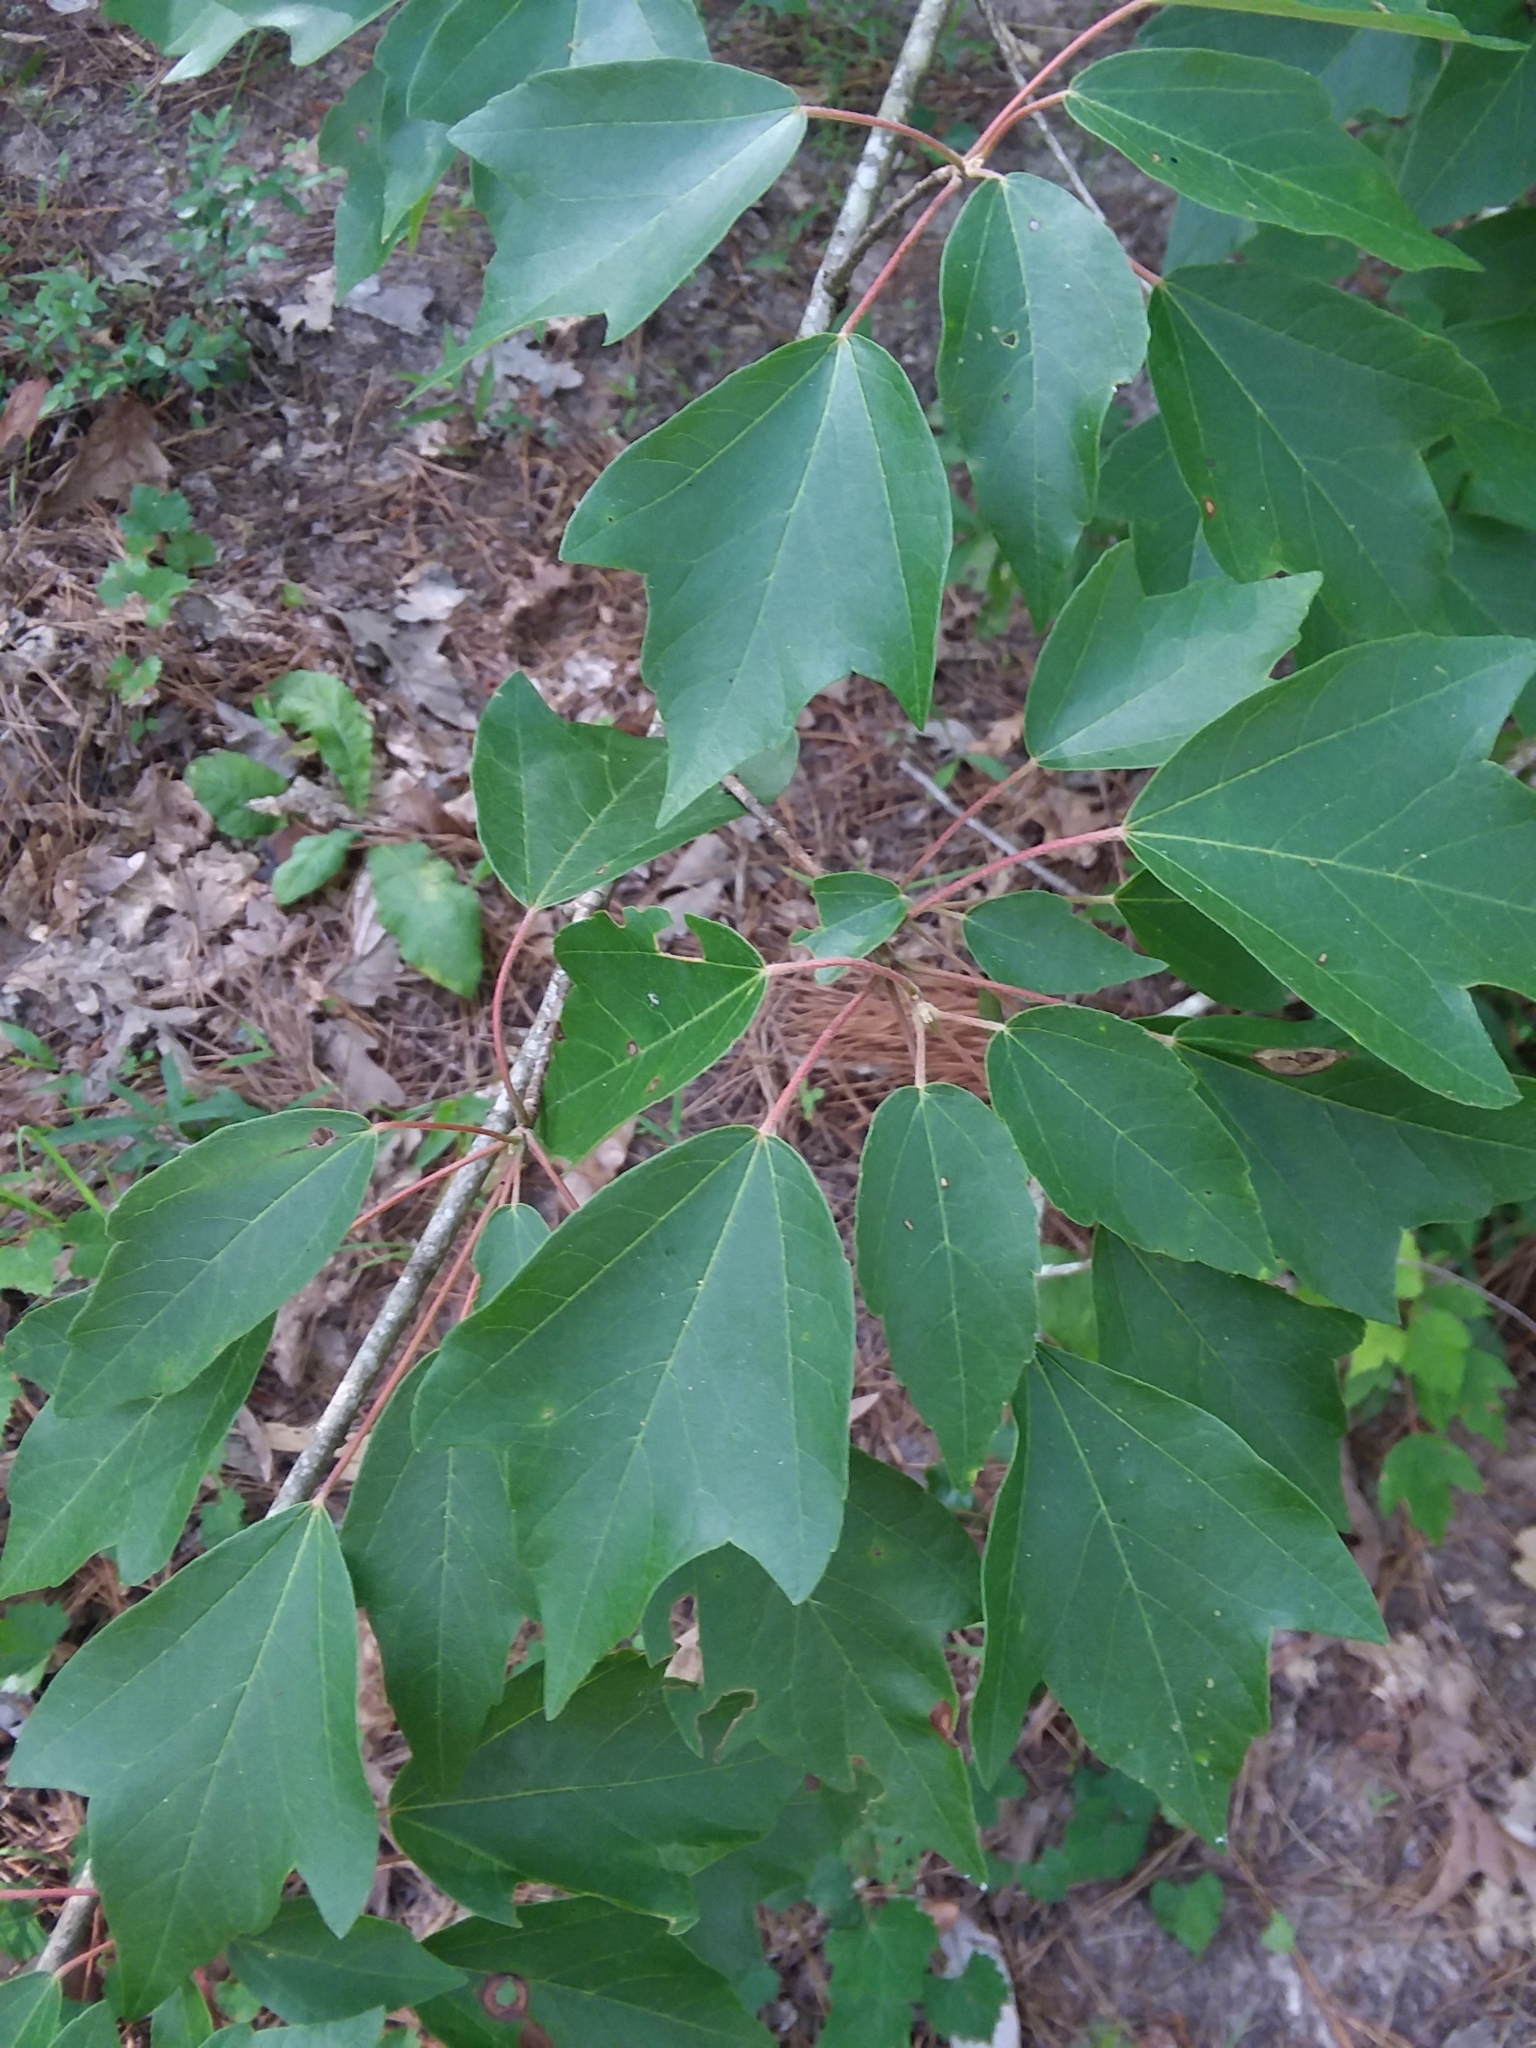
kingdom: Plantae
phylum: Tracheophyta
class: Magnoliopsida
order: Sapindales
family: Sapindaceae
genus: Acer
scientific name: Acer rubrum
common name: Red maple
